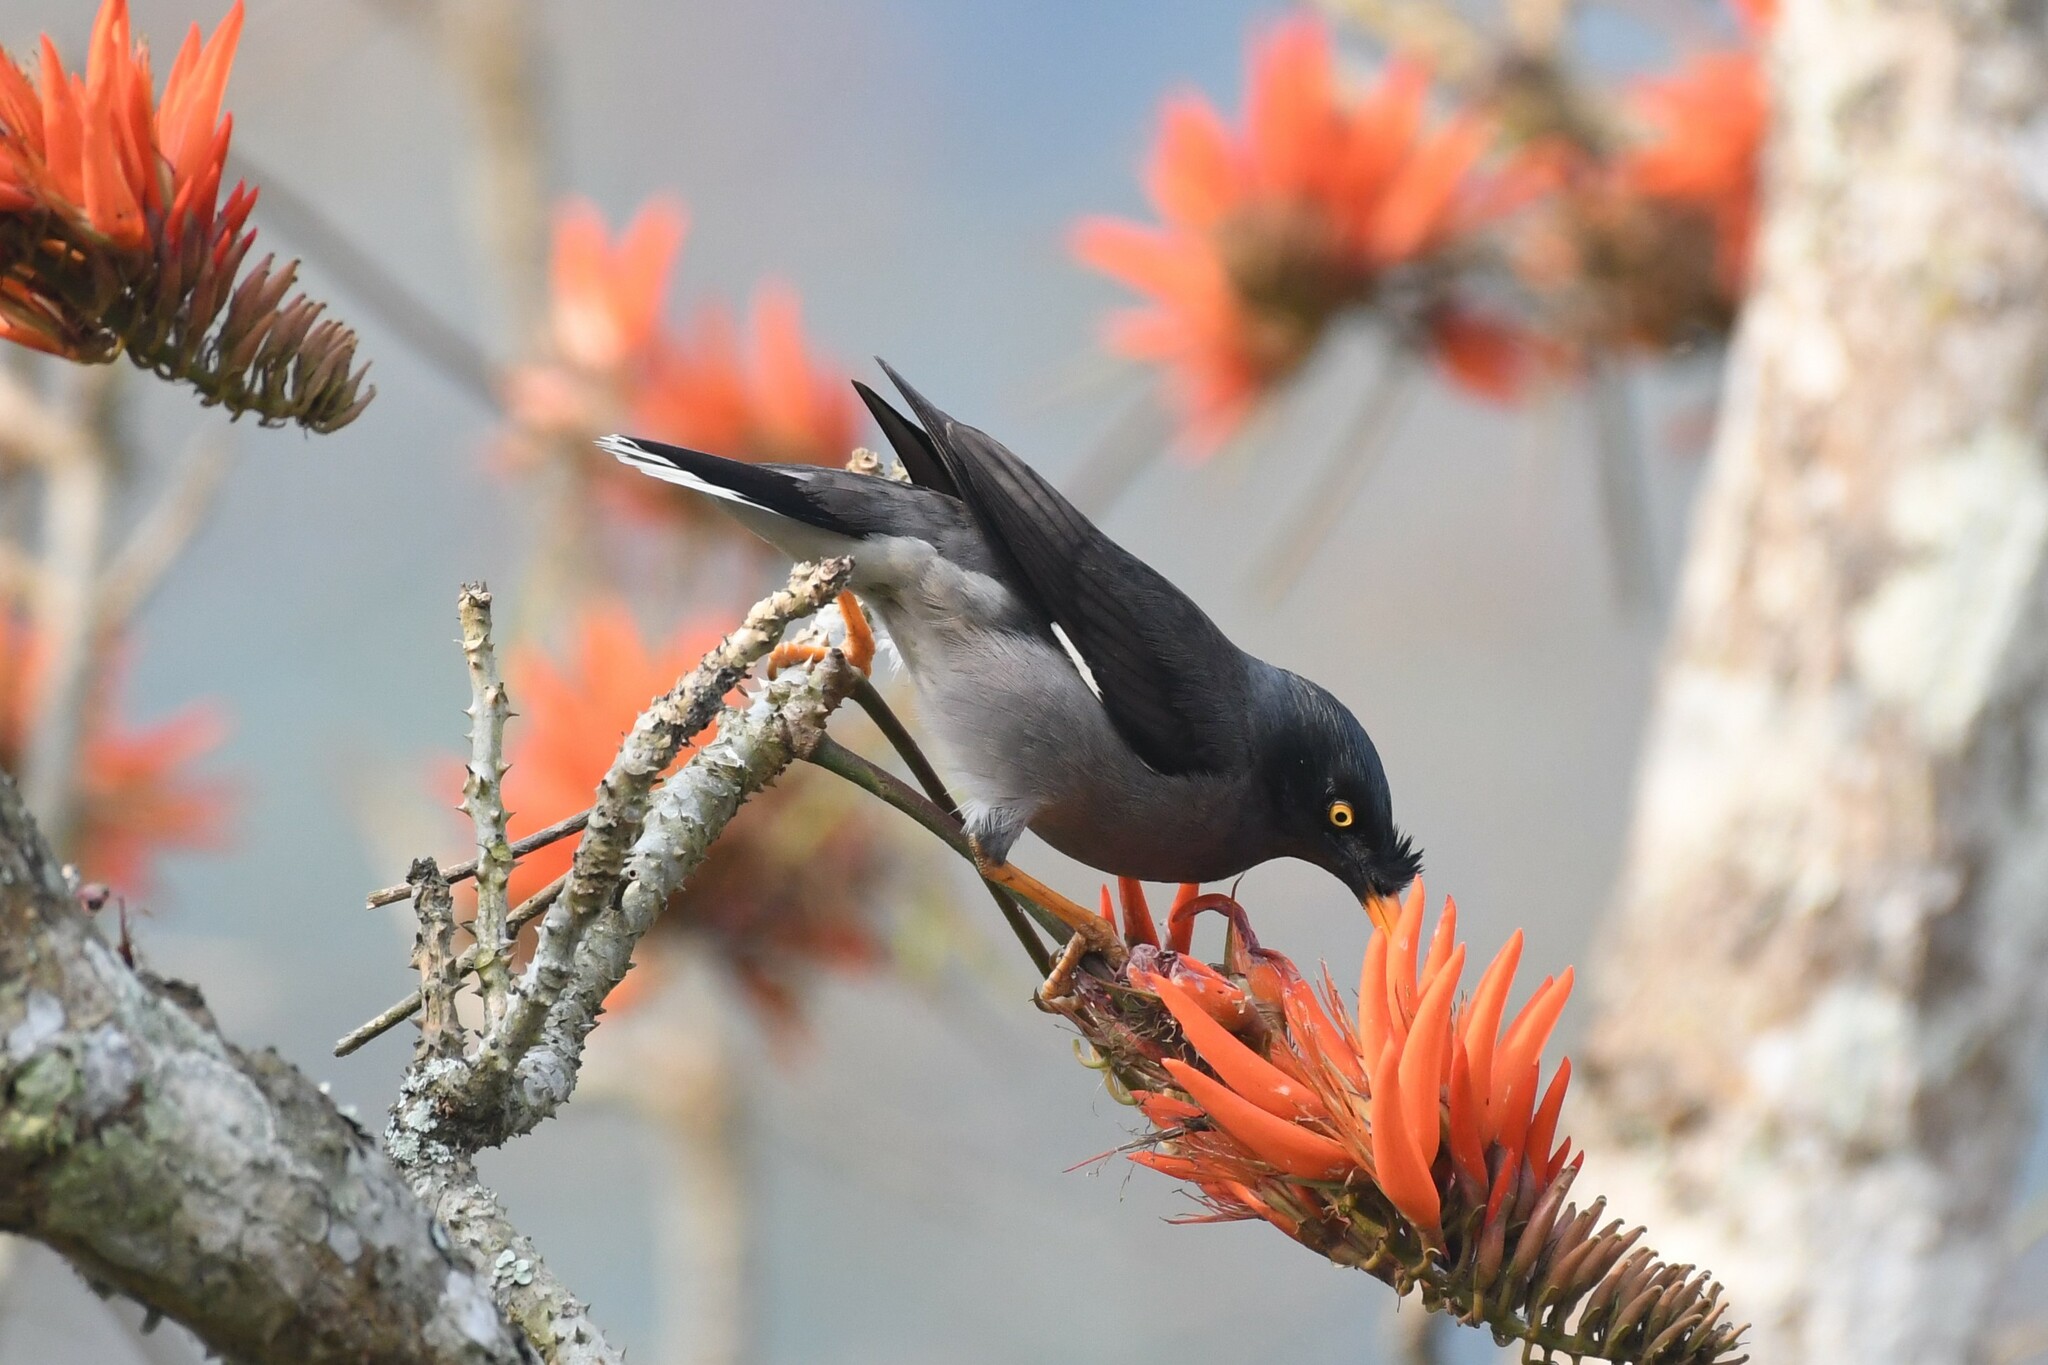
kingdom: Animalia
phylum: Chordata
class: Aves
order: Passeriformes
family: Sturnidae
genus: Acridotheres
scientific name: Acridotheres fuscus
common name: Jungle myna
